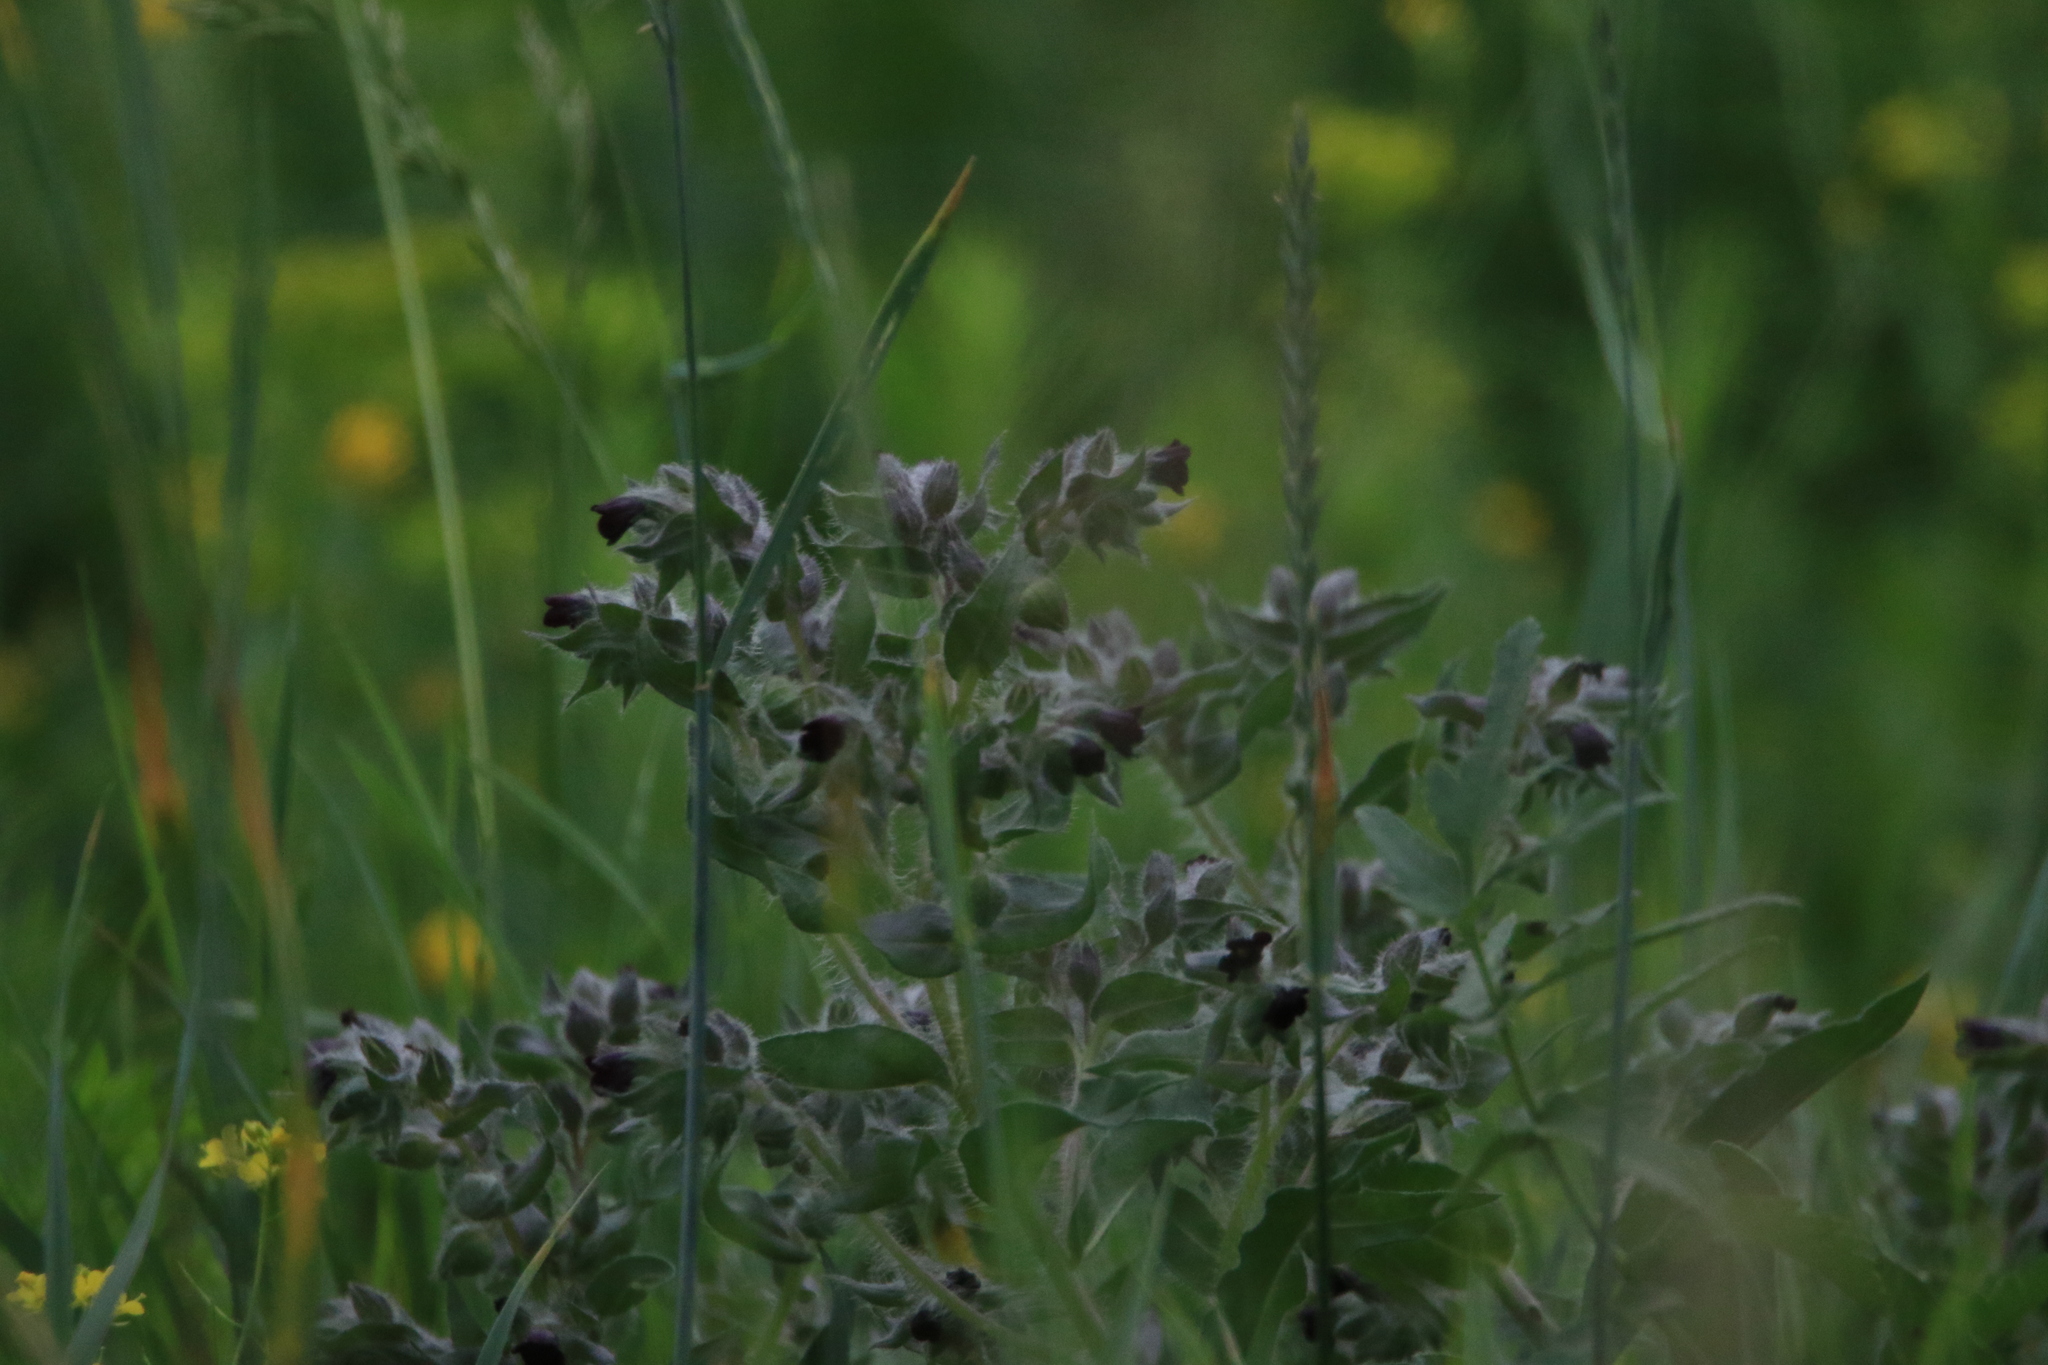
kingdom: Plantae
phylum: Tracheophyta
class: Magnoliopsida
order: Boraginales
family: Boraginaceae
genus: Nonea
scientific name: Nonea pulla
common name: Brown nonea
